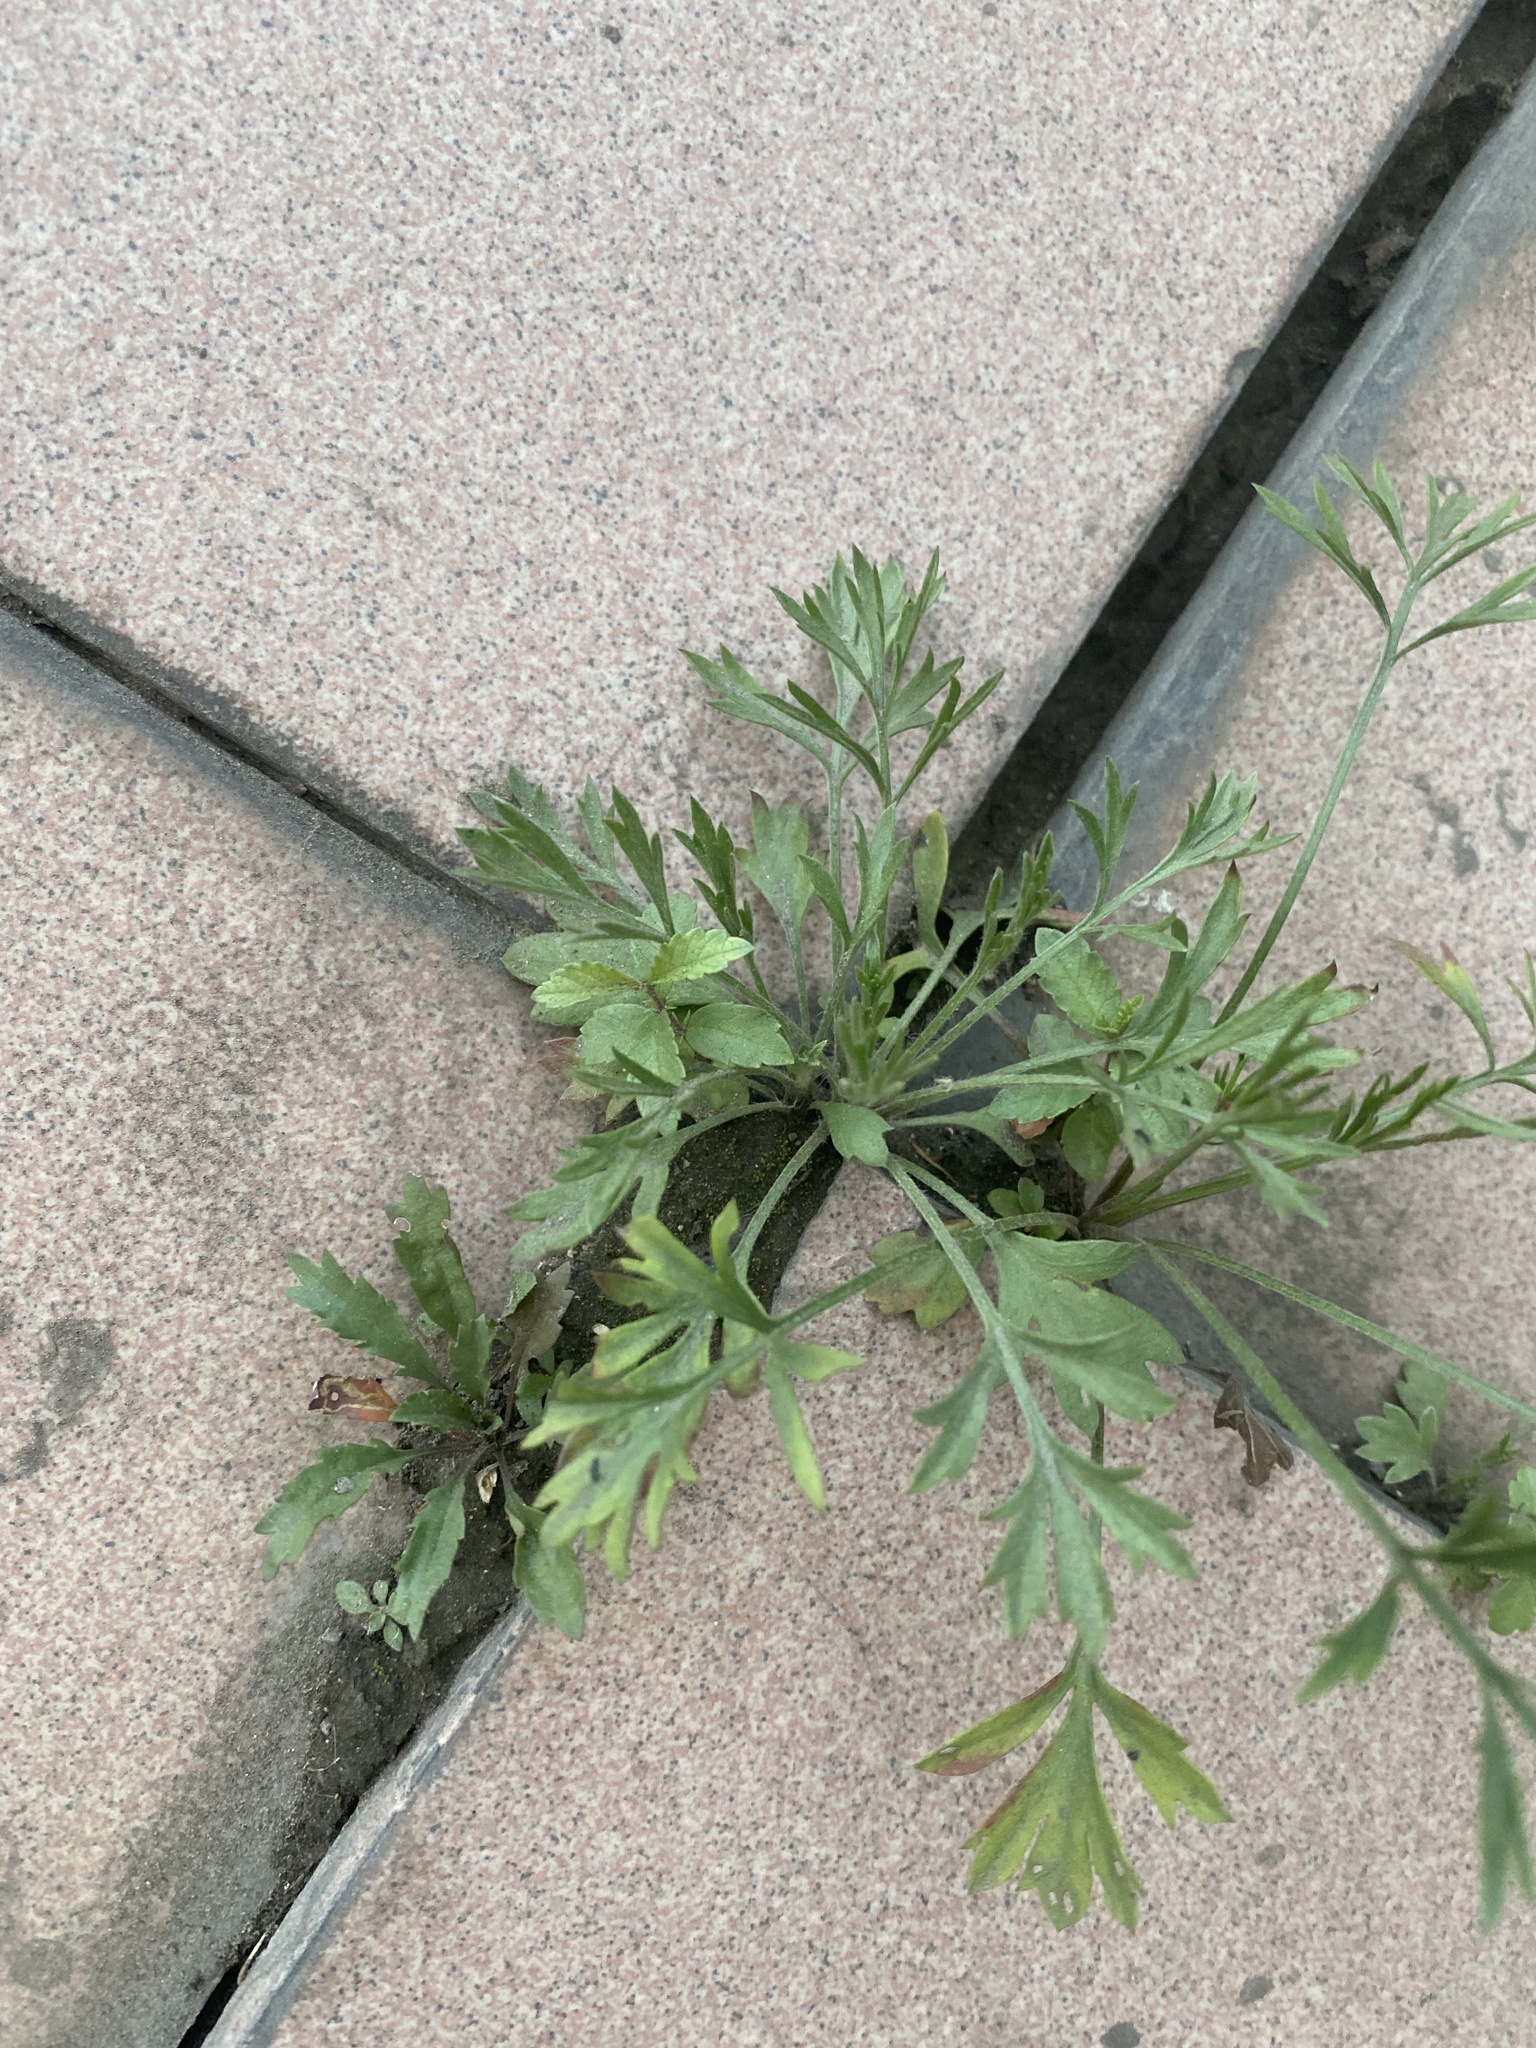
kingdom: Plantae
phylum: Tracheophyta
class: Magnoliopsida
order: Asterales
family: Asteraceae
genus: Artemisia
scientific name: Artemisia
